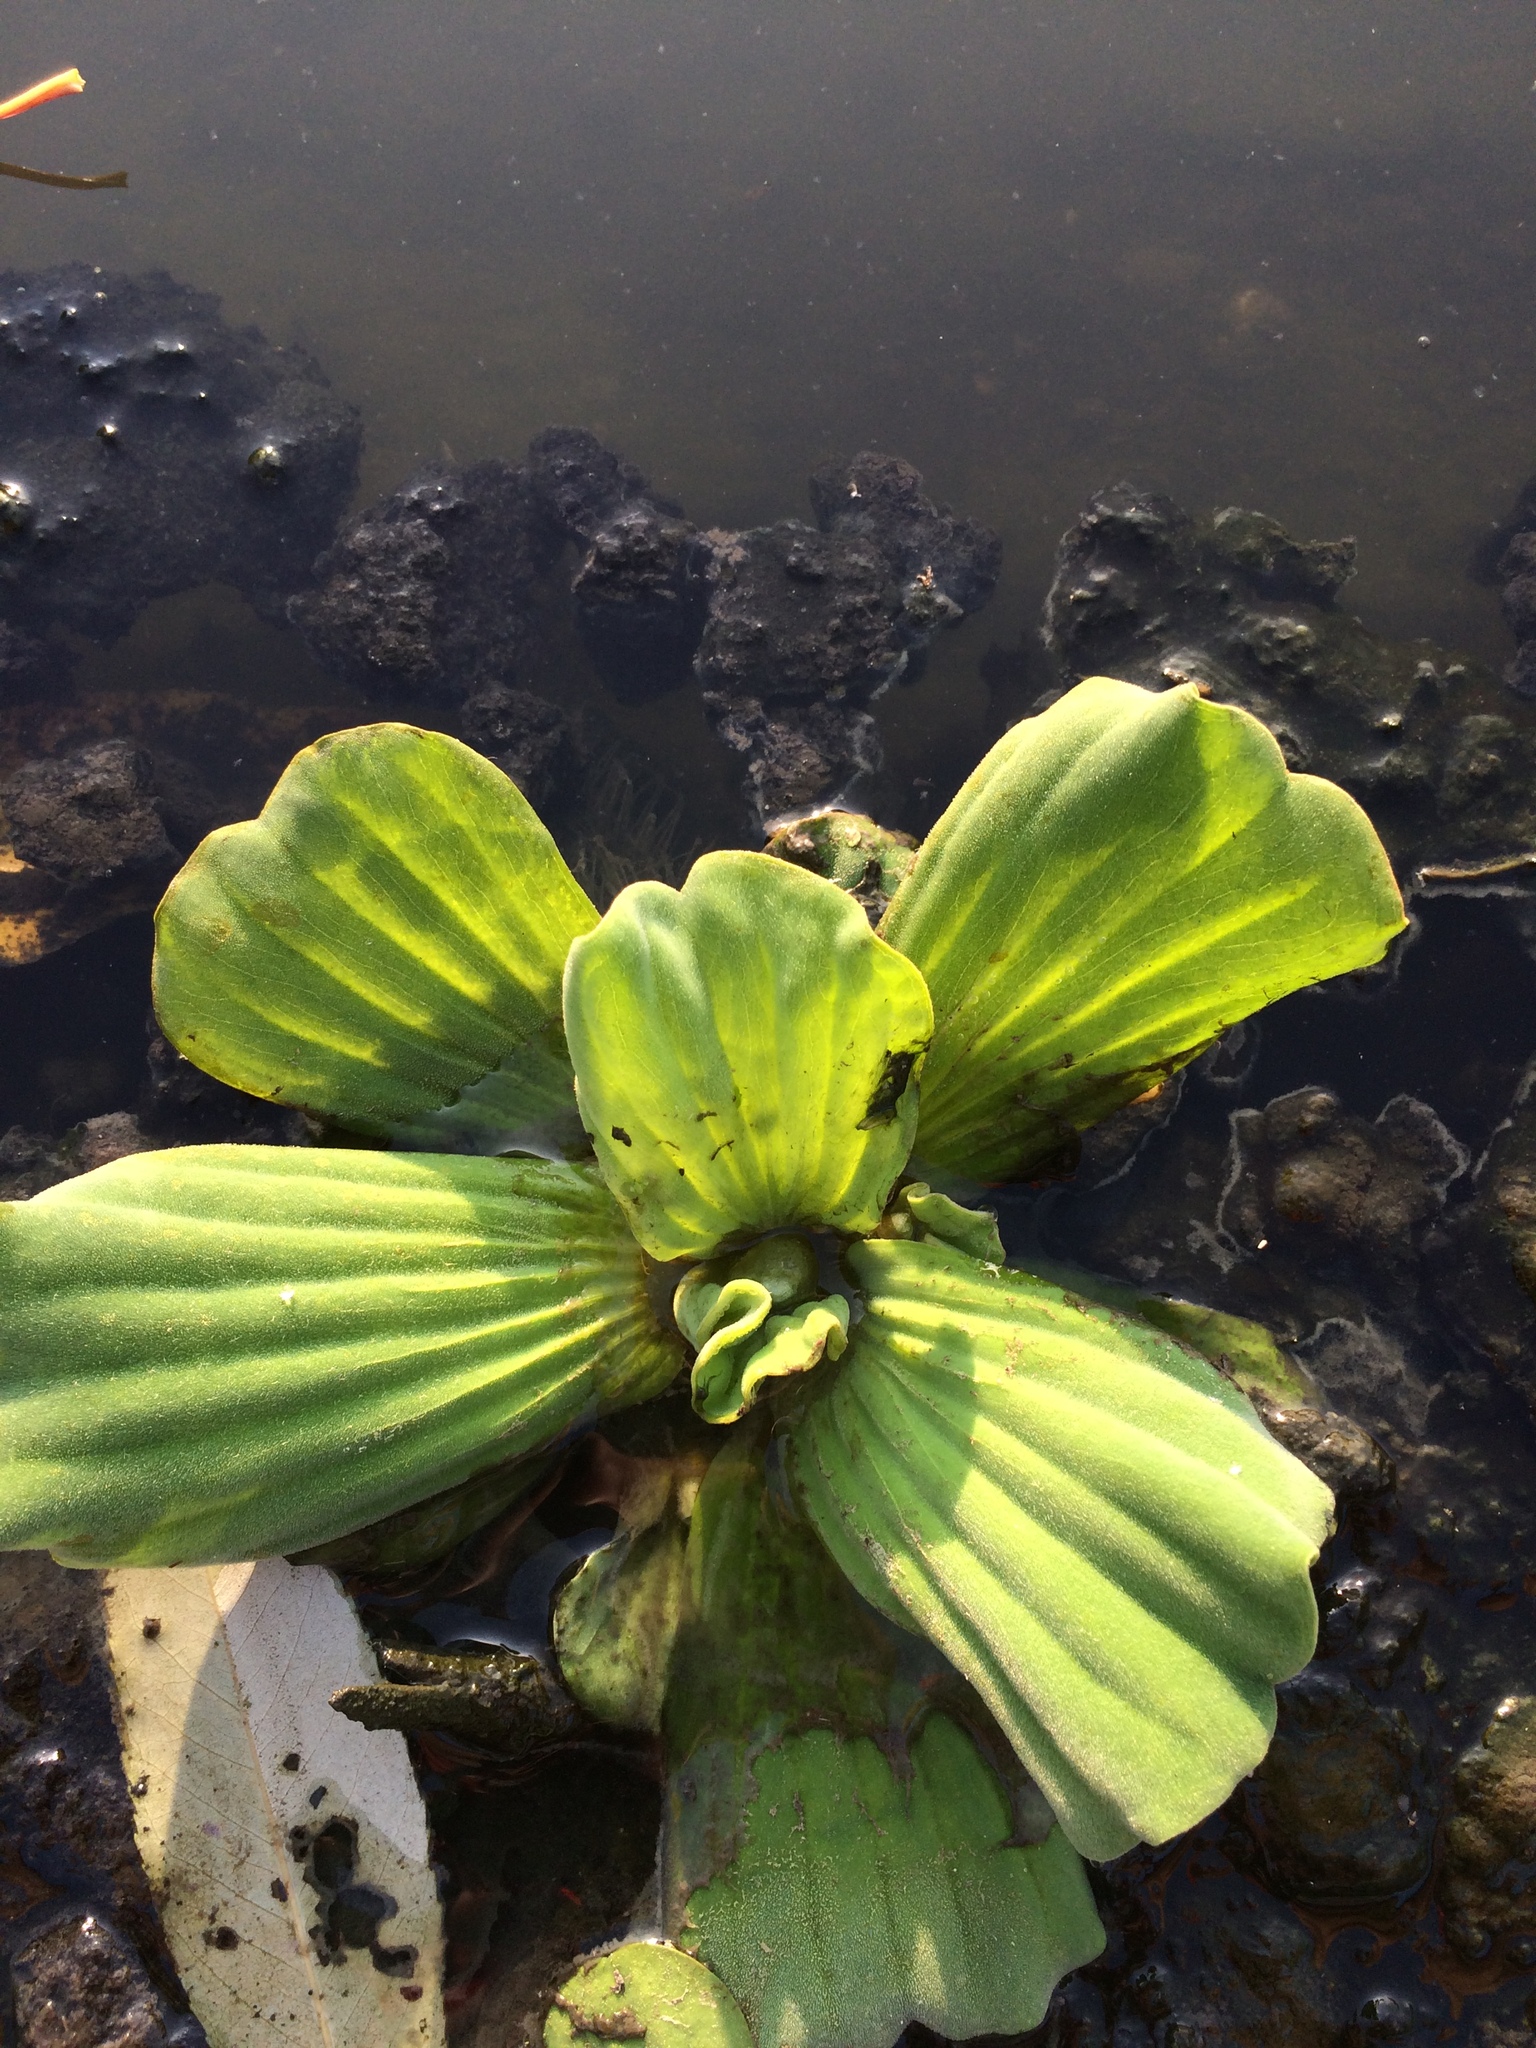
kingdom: Plantae
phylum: Tracheophyta
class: Liliopsida
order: Alismatales
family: Araceae
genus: Pistia
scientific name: Pistia stratiotes
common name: Water lettuce
